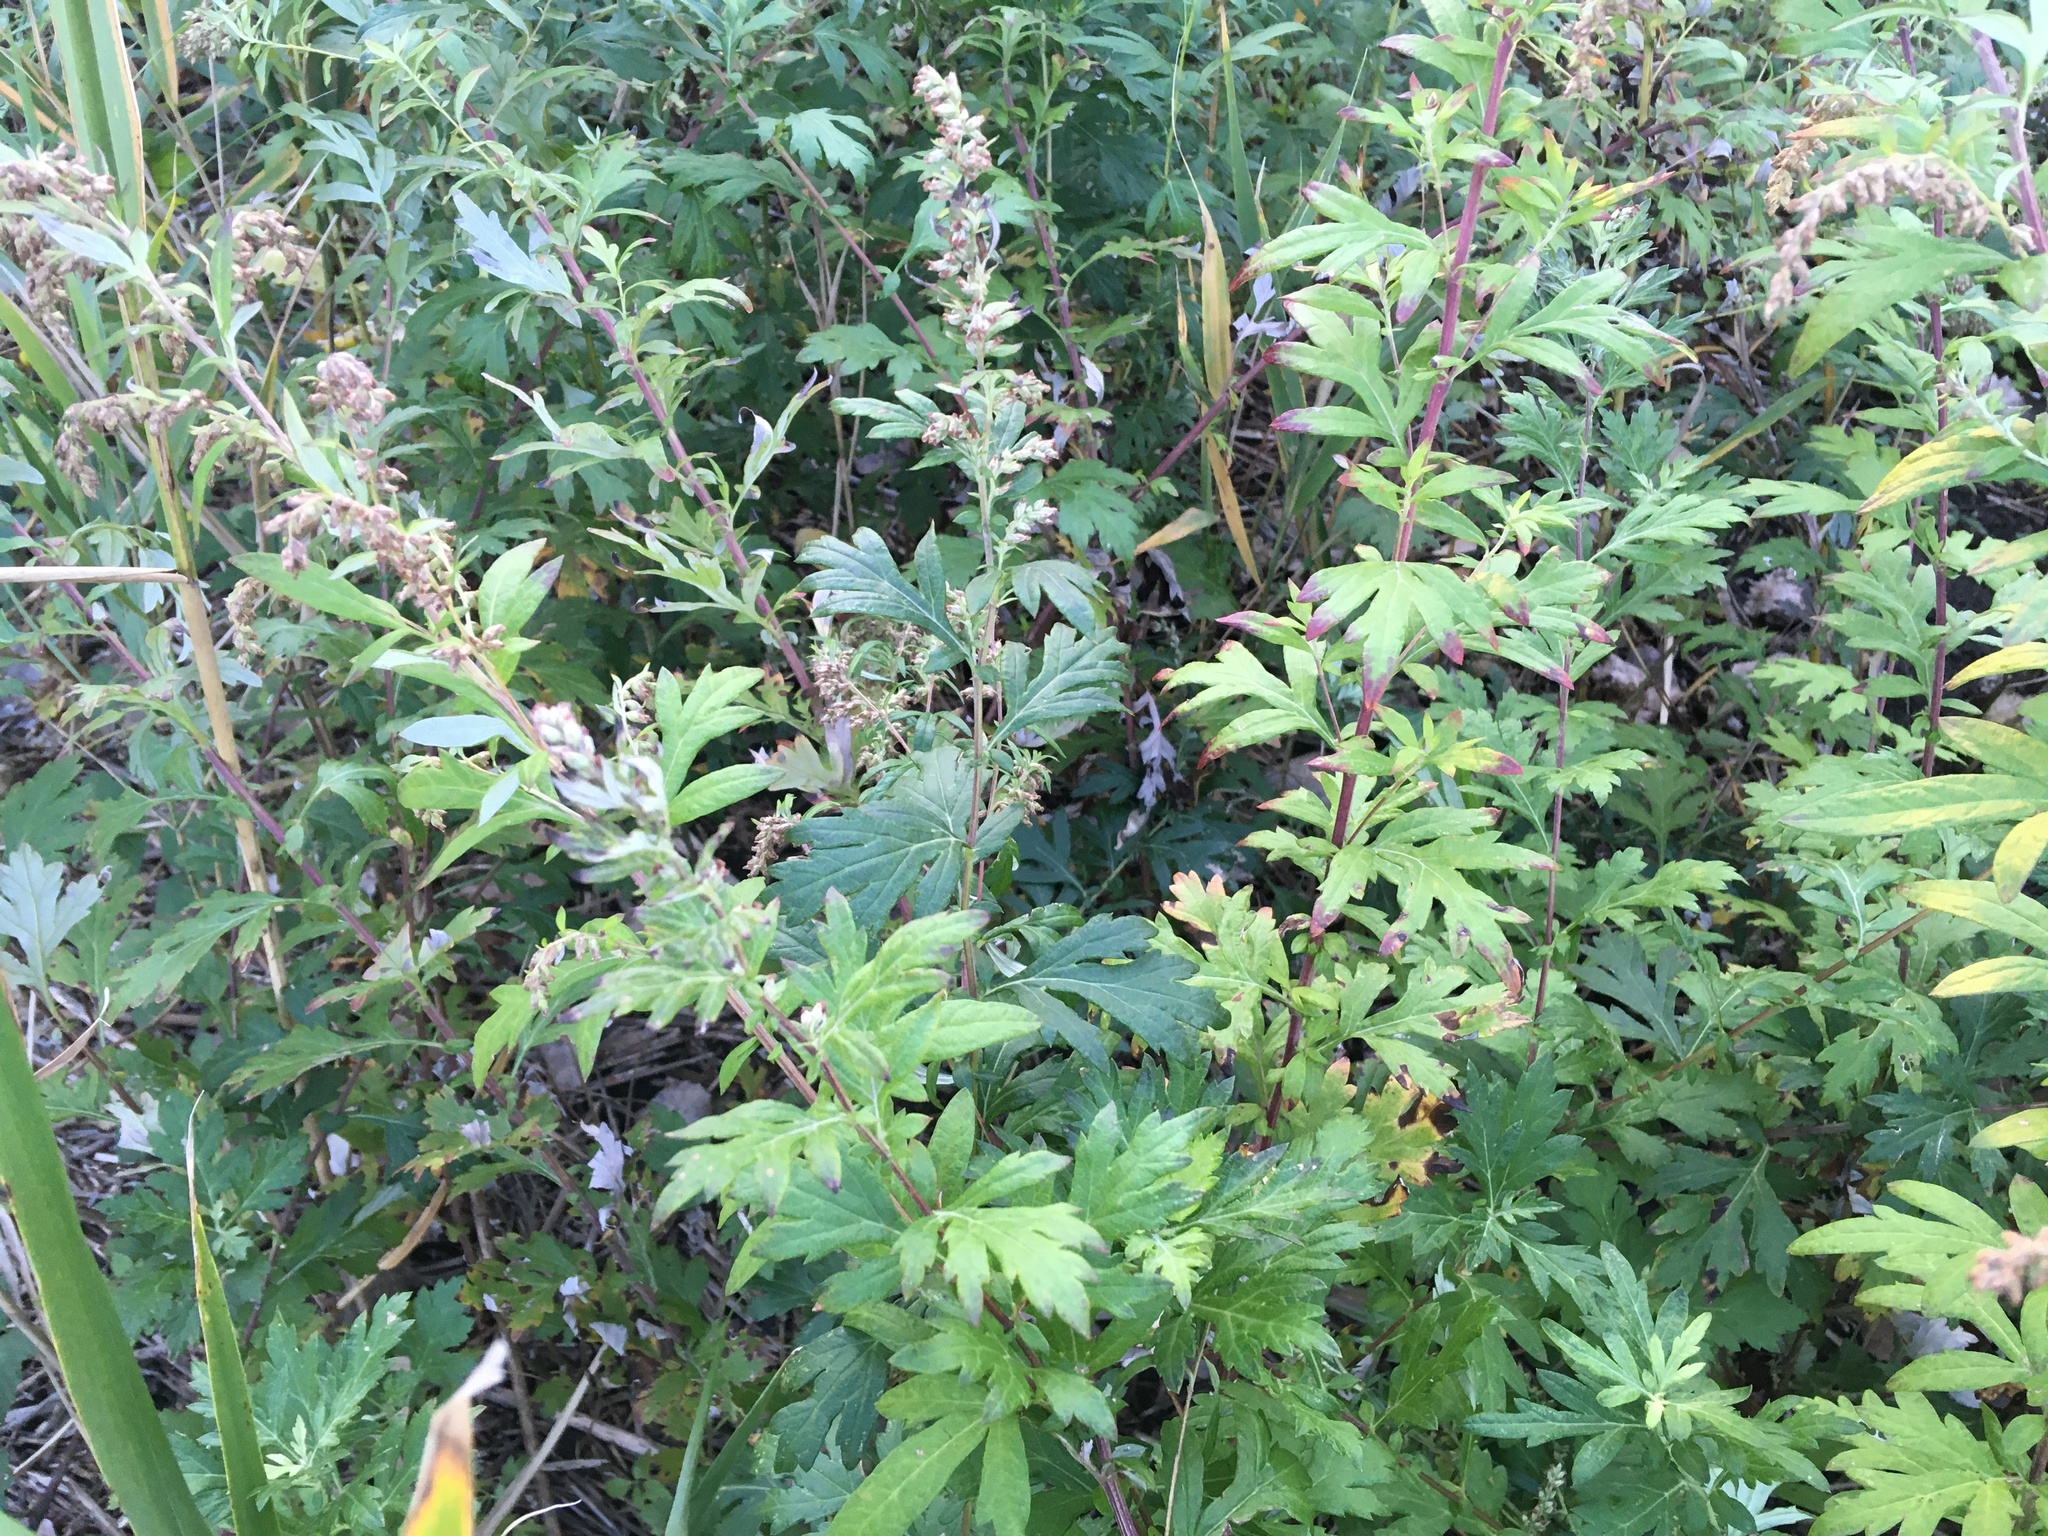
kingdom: Plantae
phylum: Tracheophyta
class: Magnoliopsida
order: Asterales
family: Asteraceae
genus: Artemisia
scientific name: Artemisia vulgaris
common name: Mugwort
